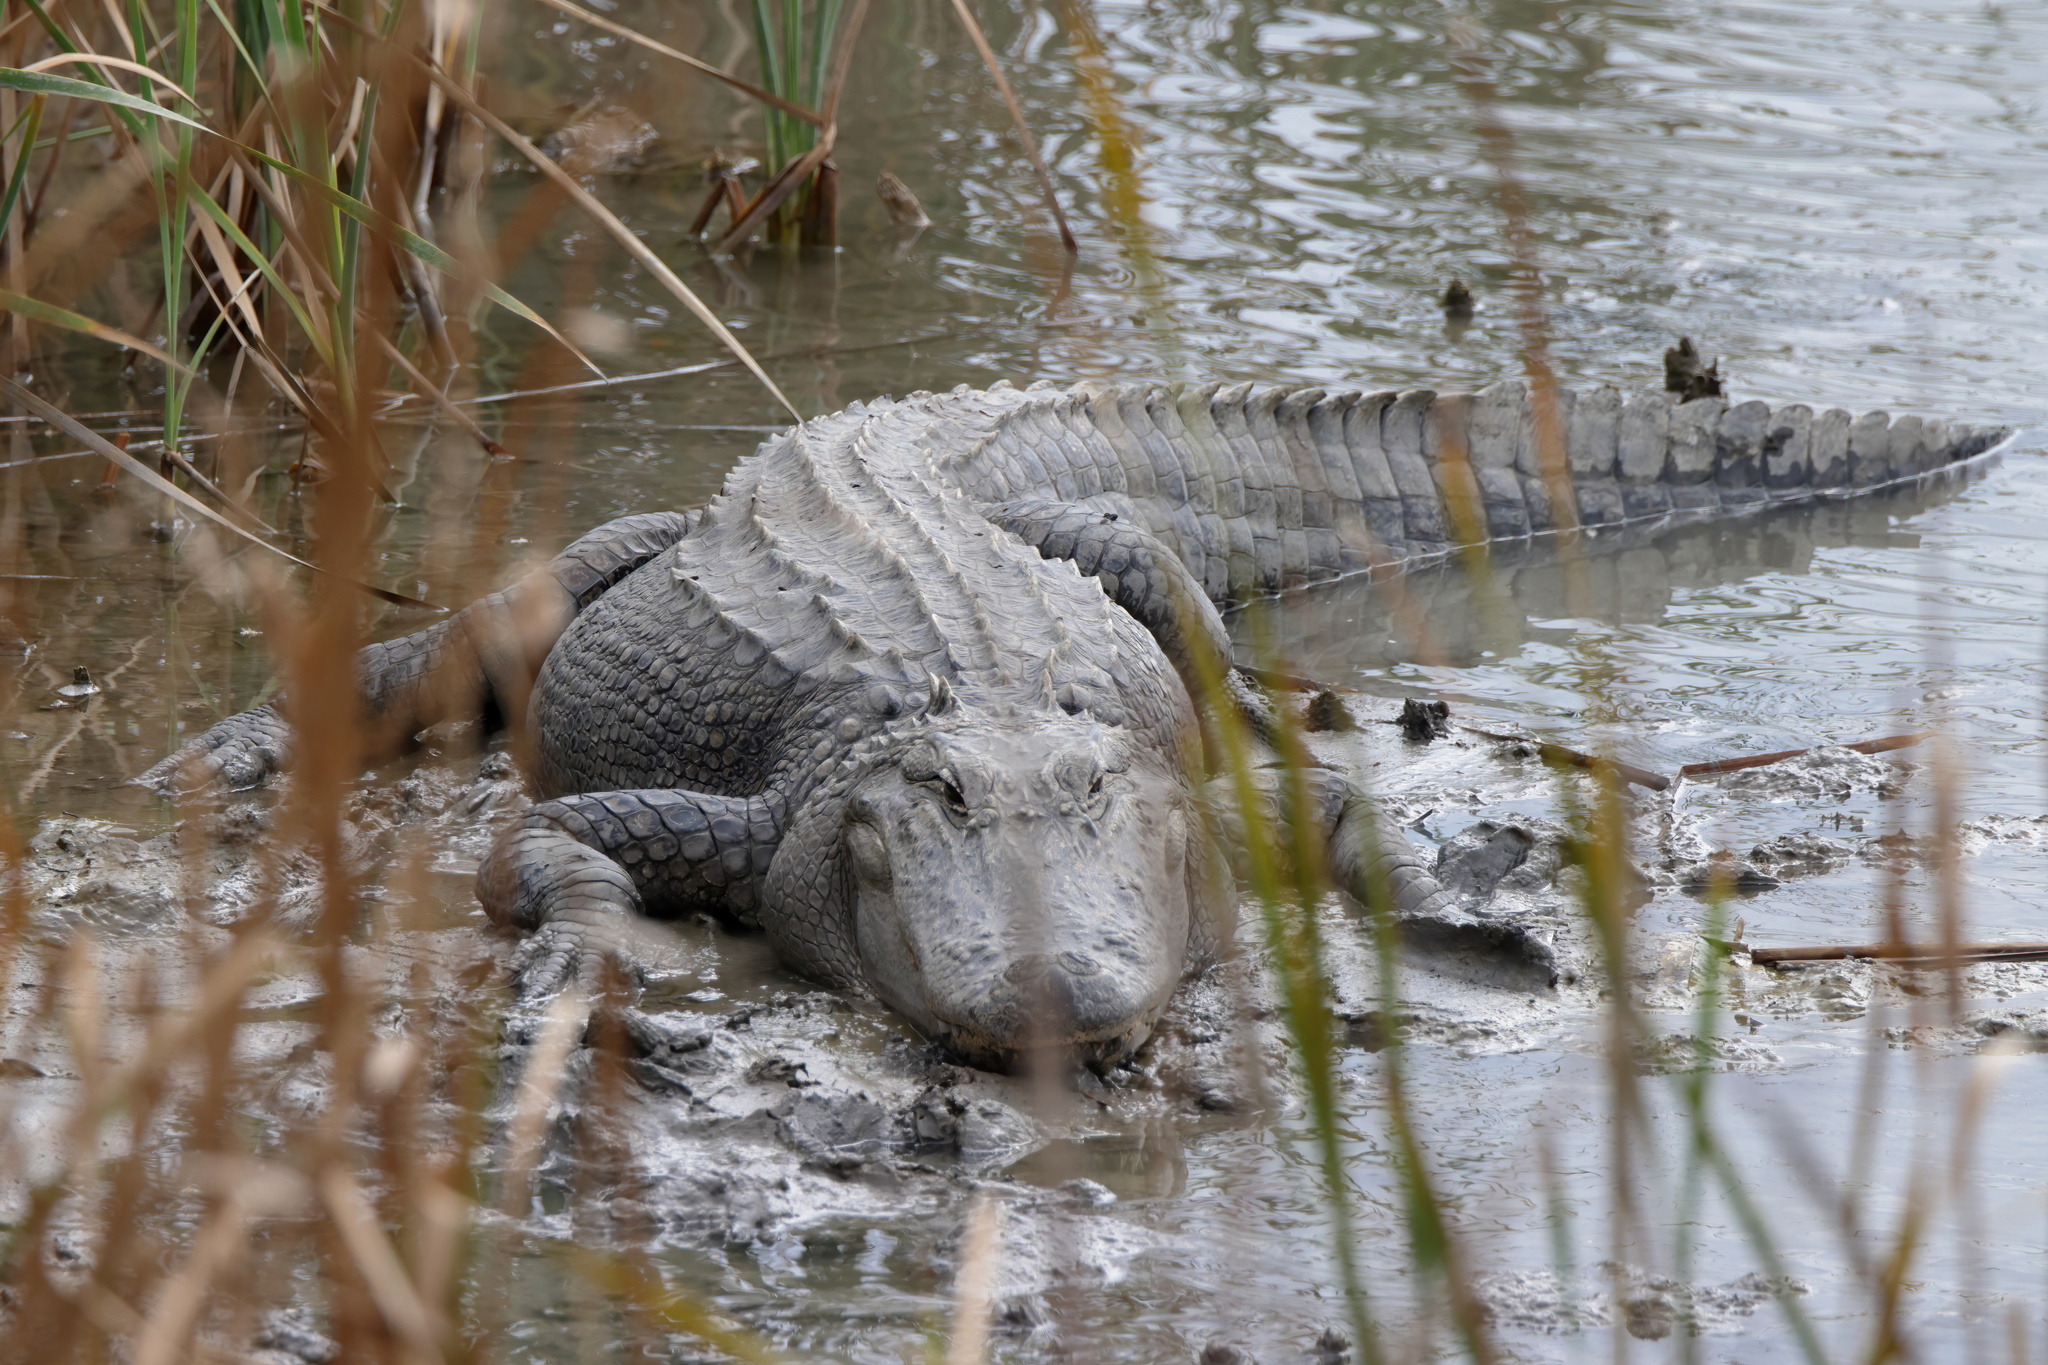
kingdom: Animalia
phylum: Chordata
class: Crocodylia
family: Alligatoridae
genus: Alligator
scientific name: Alligator mississippiensis
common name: American alligator
